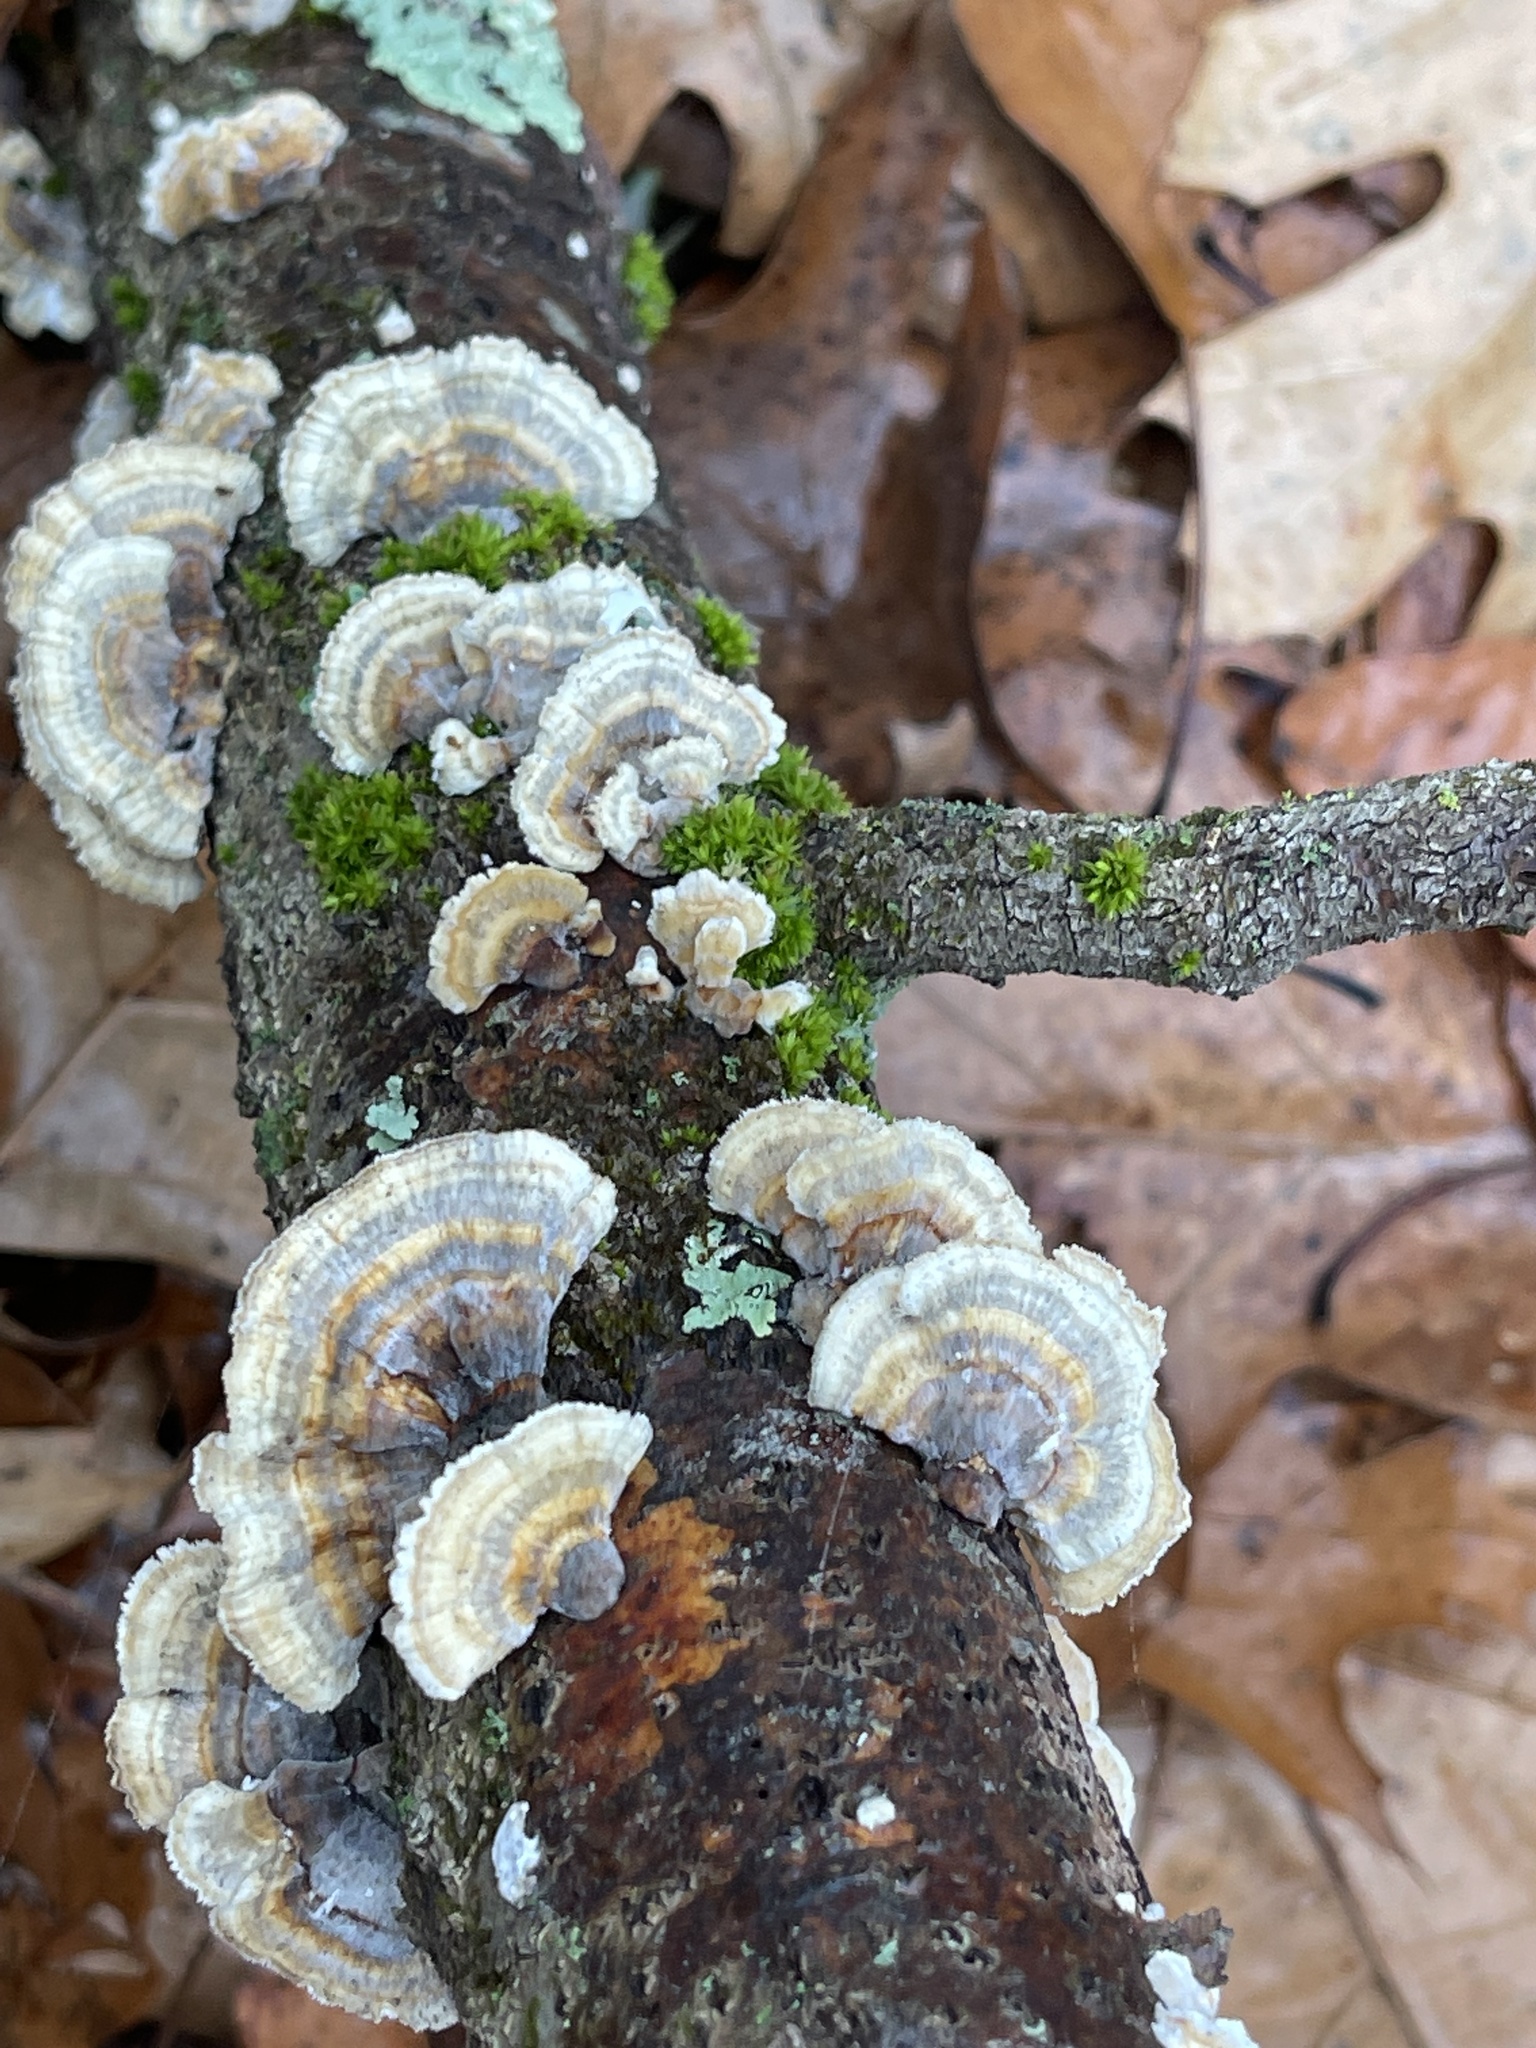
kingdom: Fungi
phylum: Basidiomycota
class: Agaricomycetes
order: Polyporales
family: Polyporaceae
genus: Trametes
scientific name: Trametes versicolor
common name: Turkeytail
